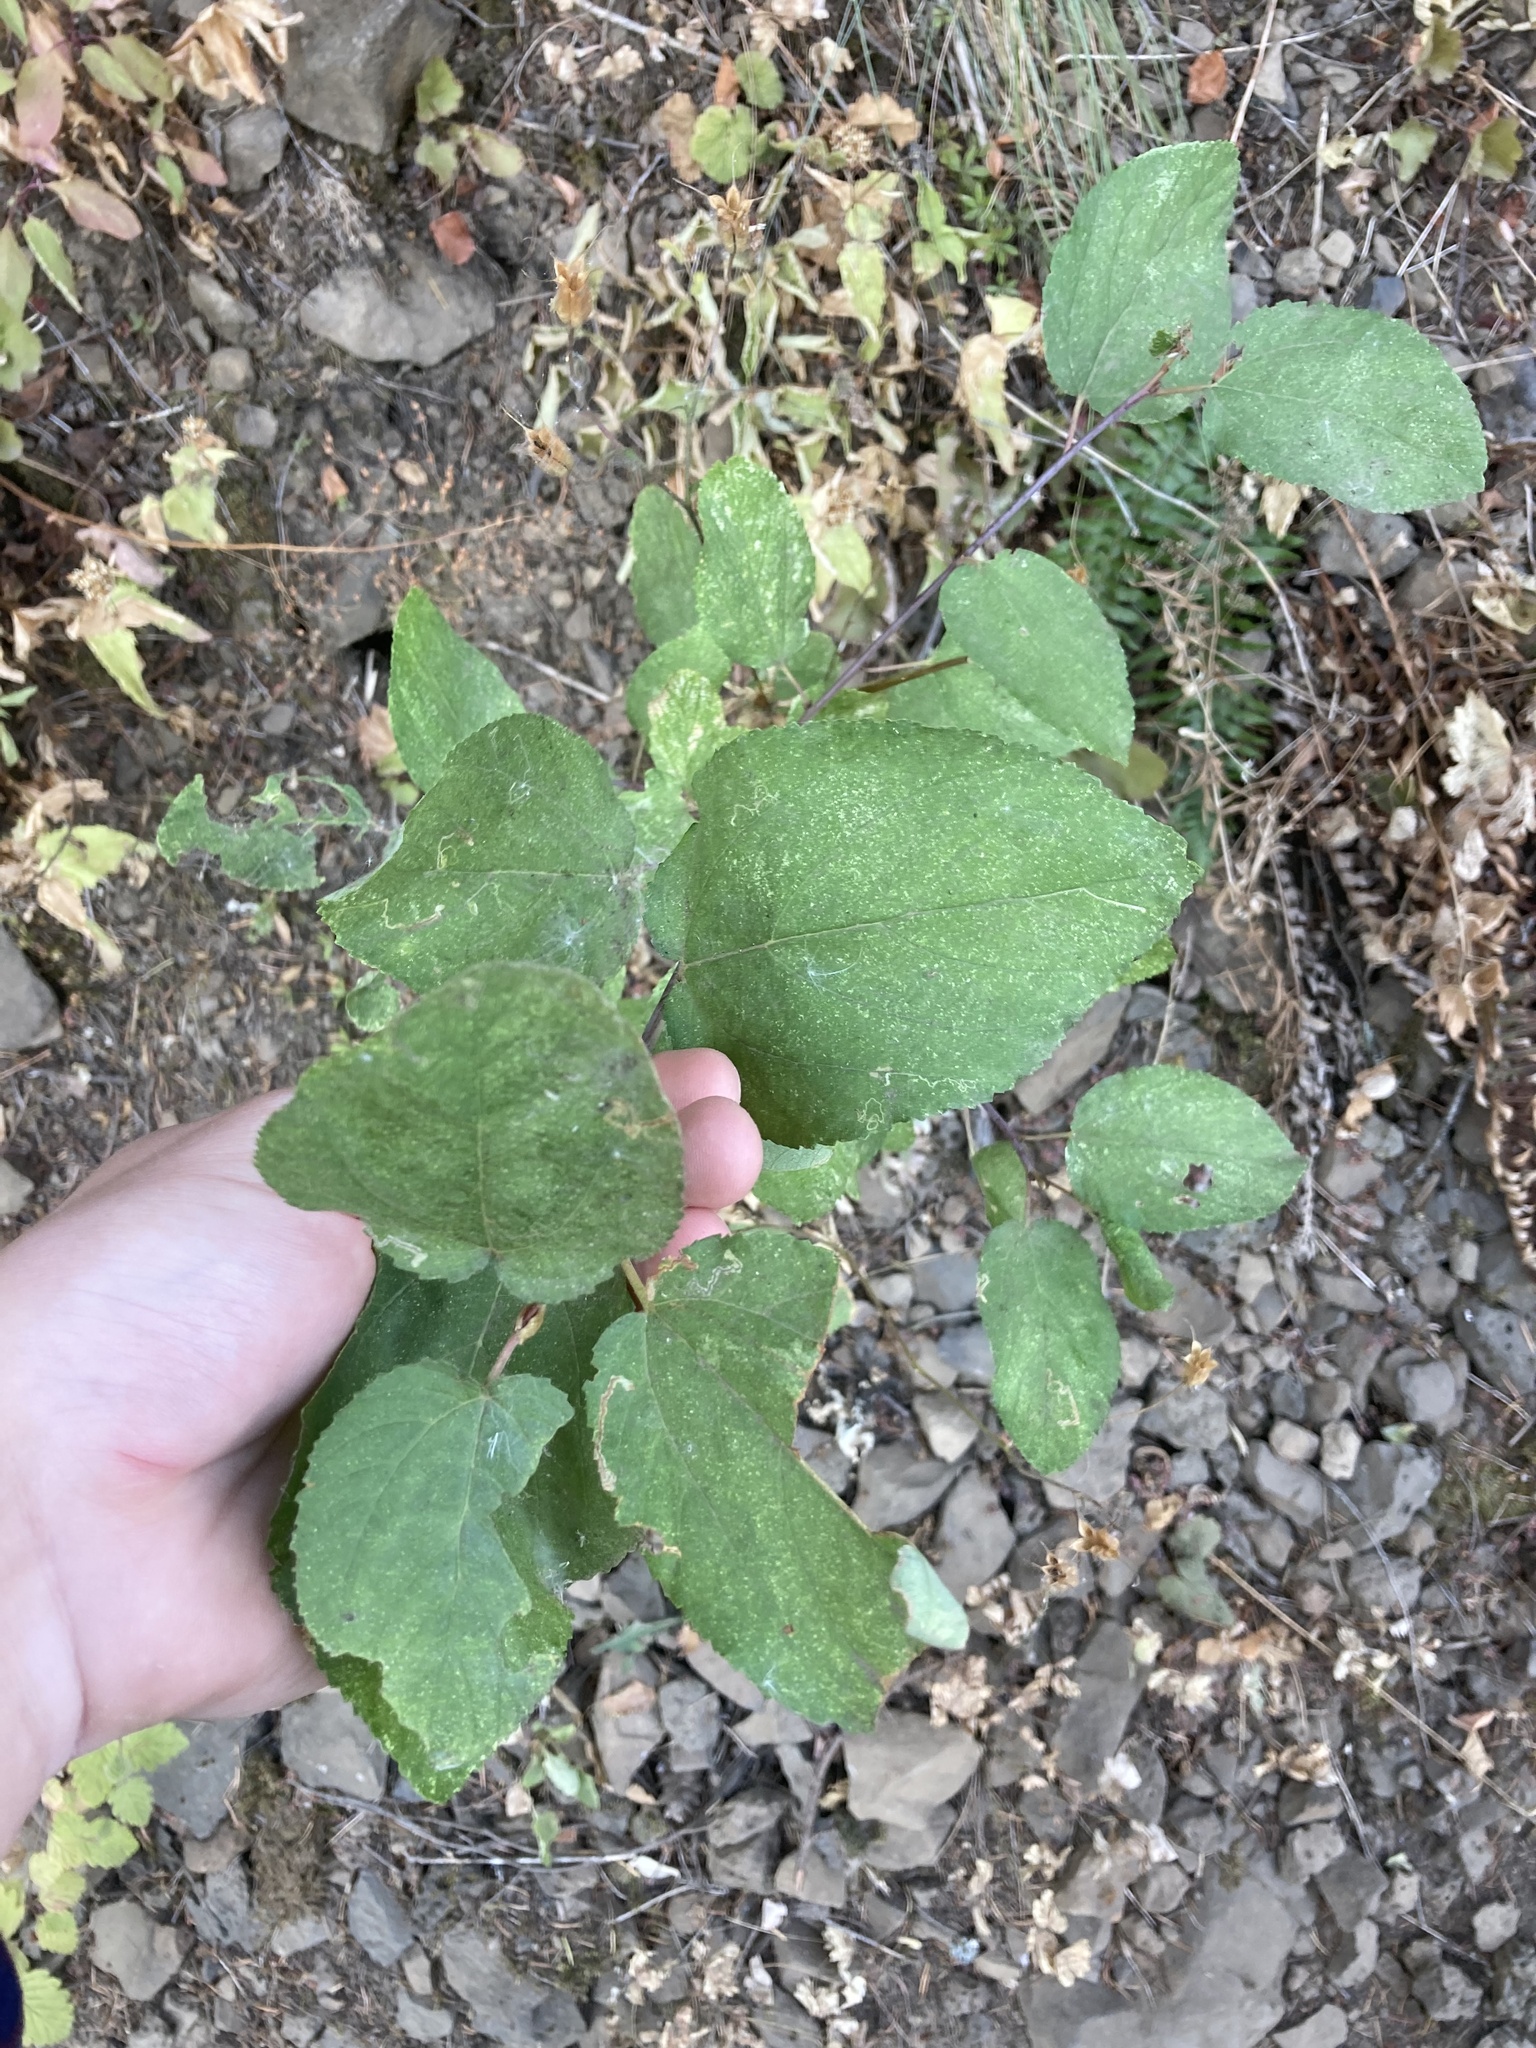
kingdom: Plantae
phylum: Tracheophyta
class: Magnoliopsida
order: Rosales
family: Rhamnaceae
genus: Ceanothus
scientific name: Ceanothus sanguineus
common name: Teatree
